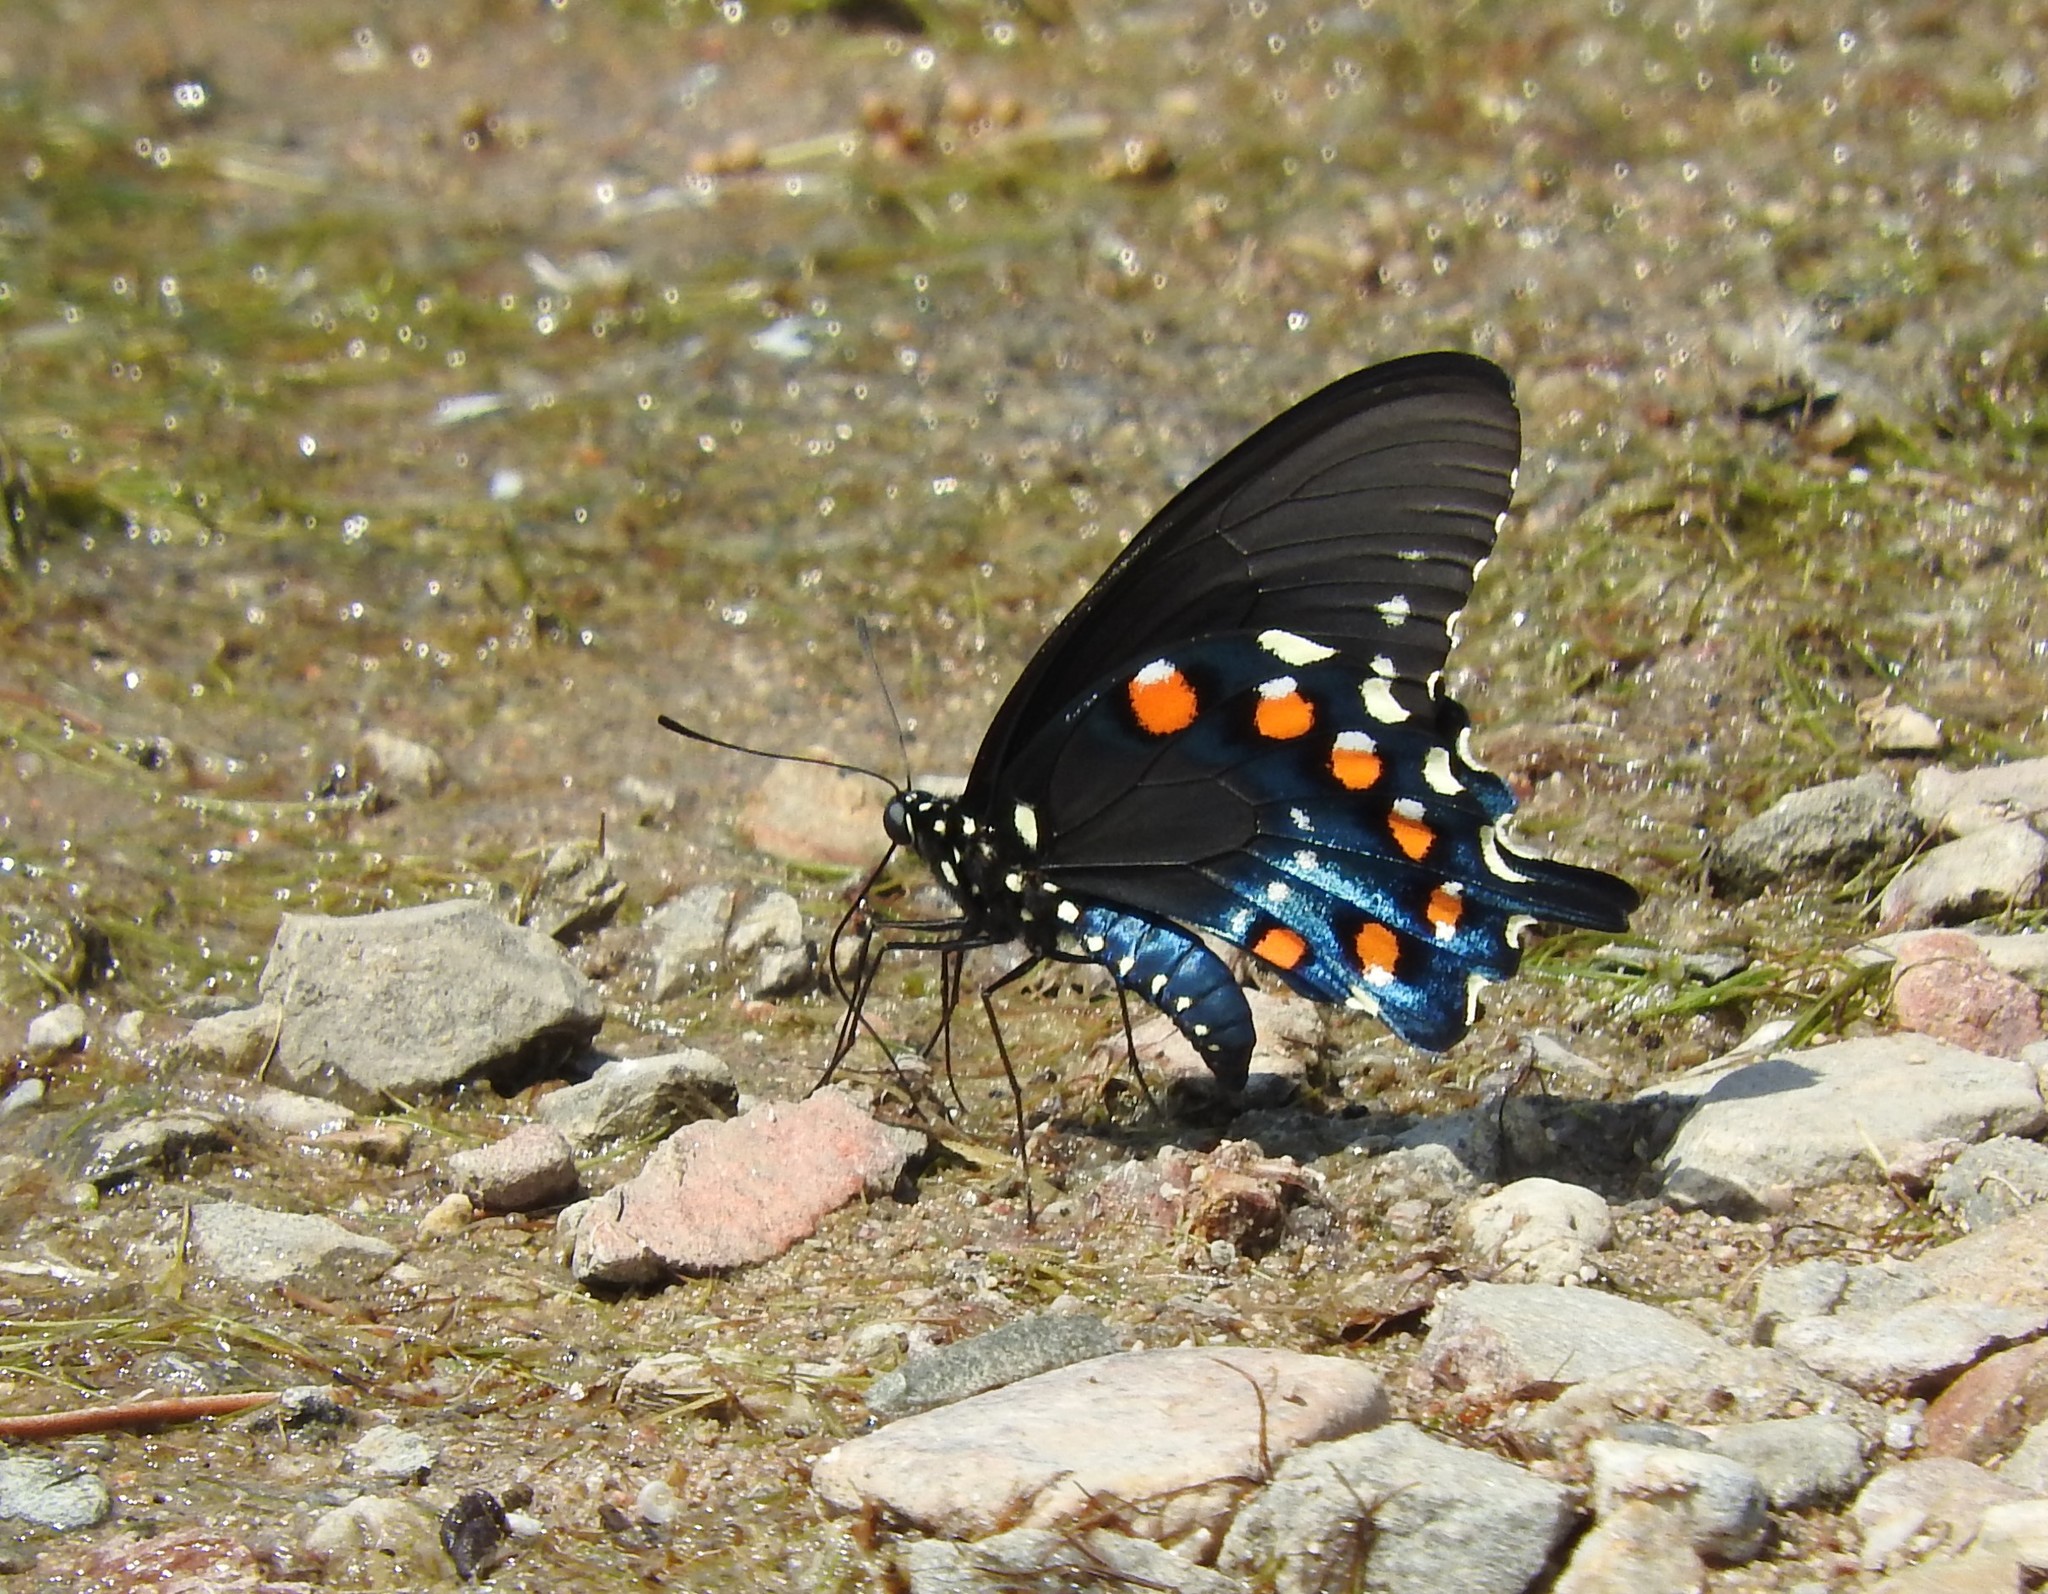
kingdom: Animalia
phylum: Arthropoda
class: Insecta
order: Lepidoptera
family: Papilionidae
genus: Battus
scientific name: Battus philenor
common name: Pipevine swallowtail
